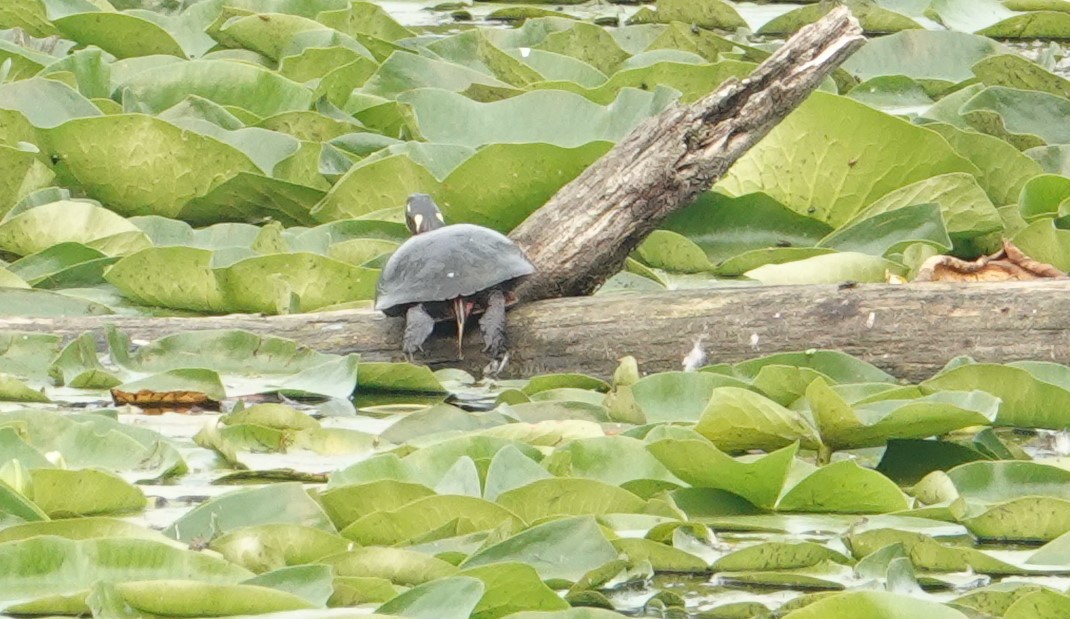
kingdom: Animalia
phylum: Chordata
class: Testudines
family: Emydidae
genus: Chrysemys
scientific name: Chrysemys picta
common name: Painted turtle
